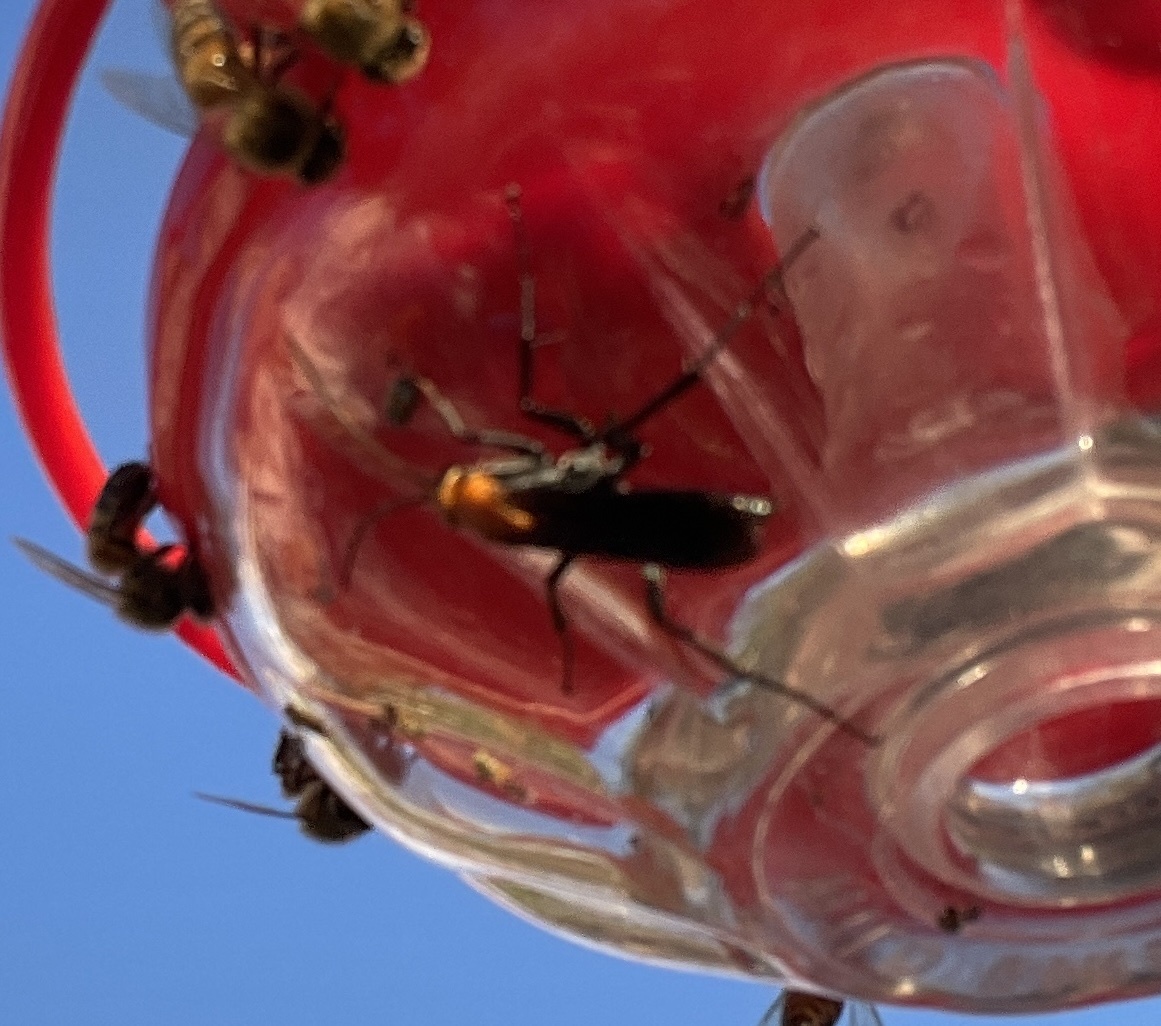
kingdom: Animalia
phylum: Arthropoda
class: Insecta
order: Hymenoptera
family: Pompilidae
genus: Notocyphus
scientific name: Notocyphus dorsalis
